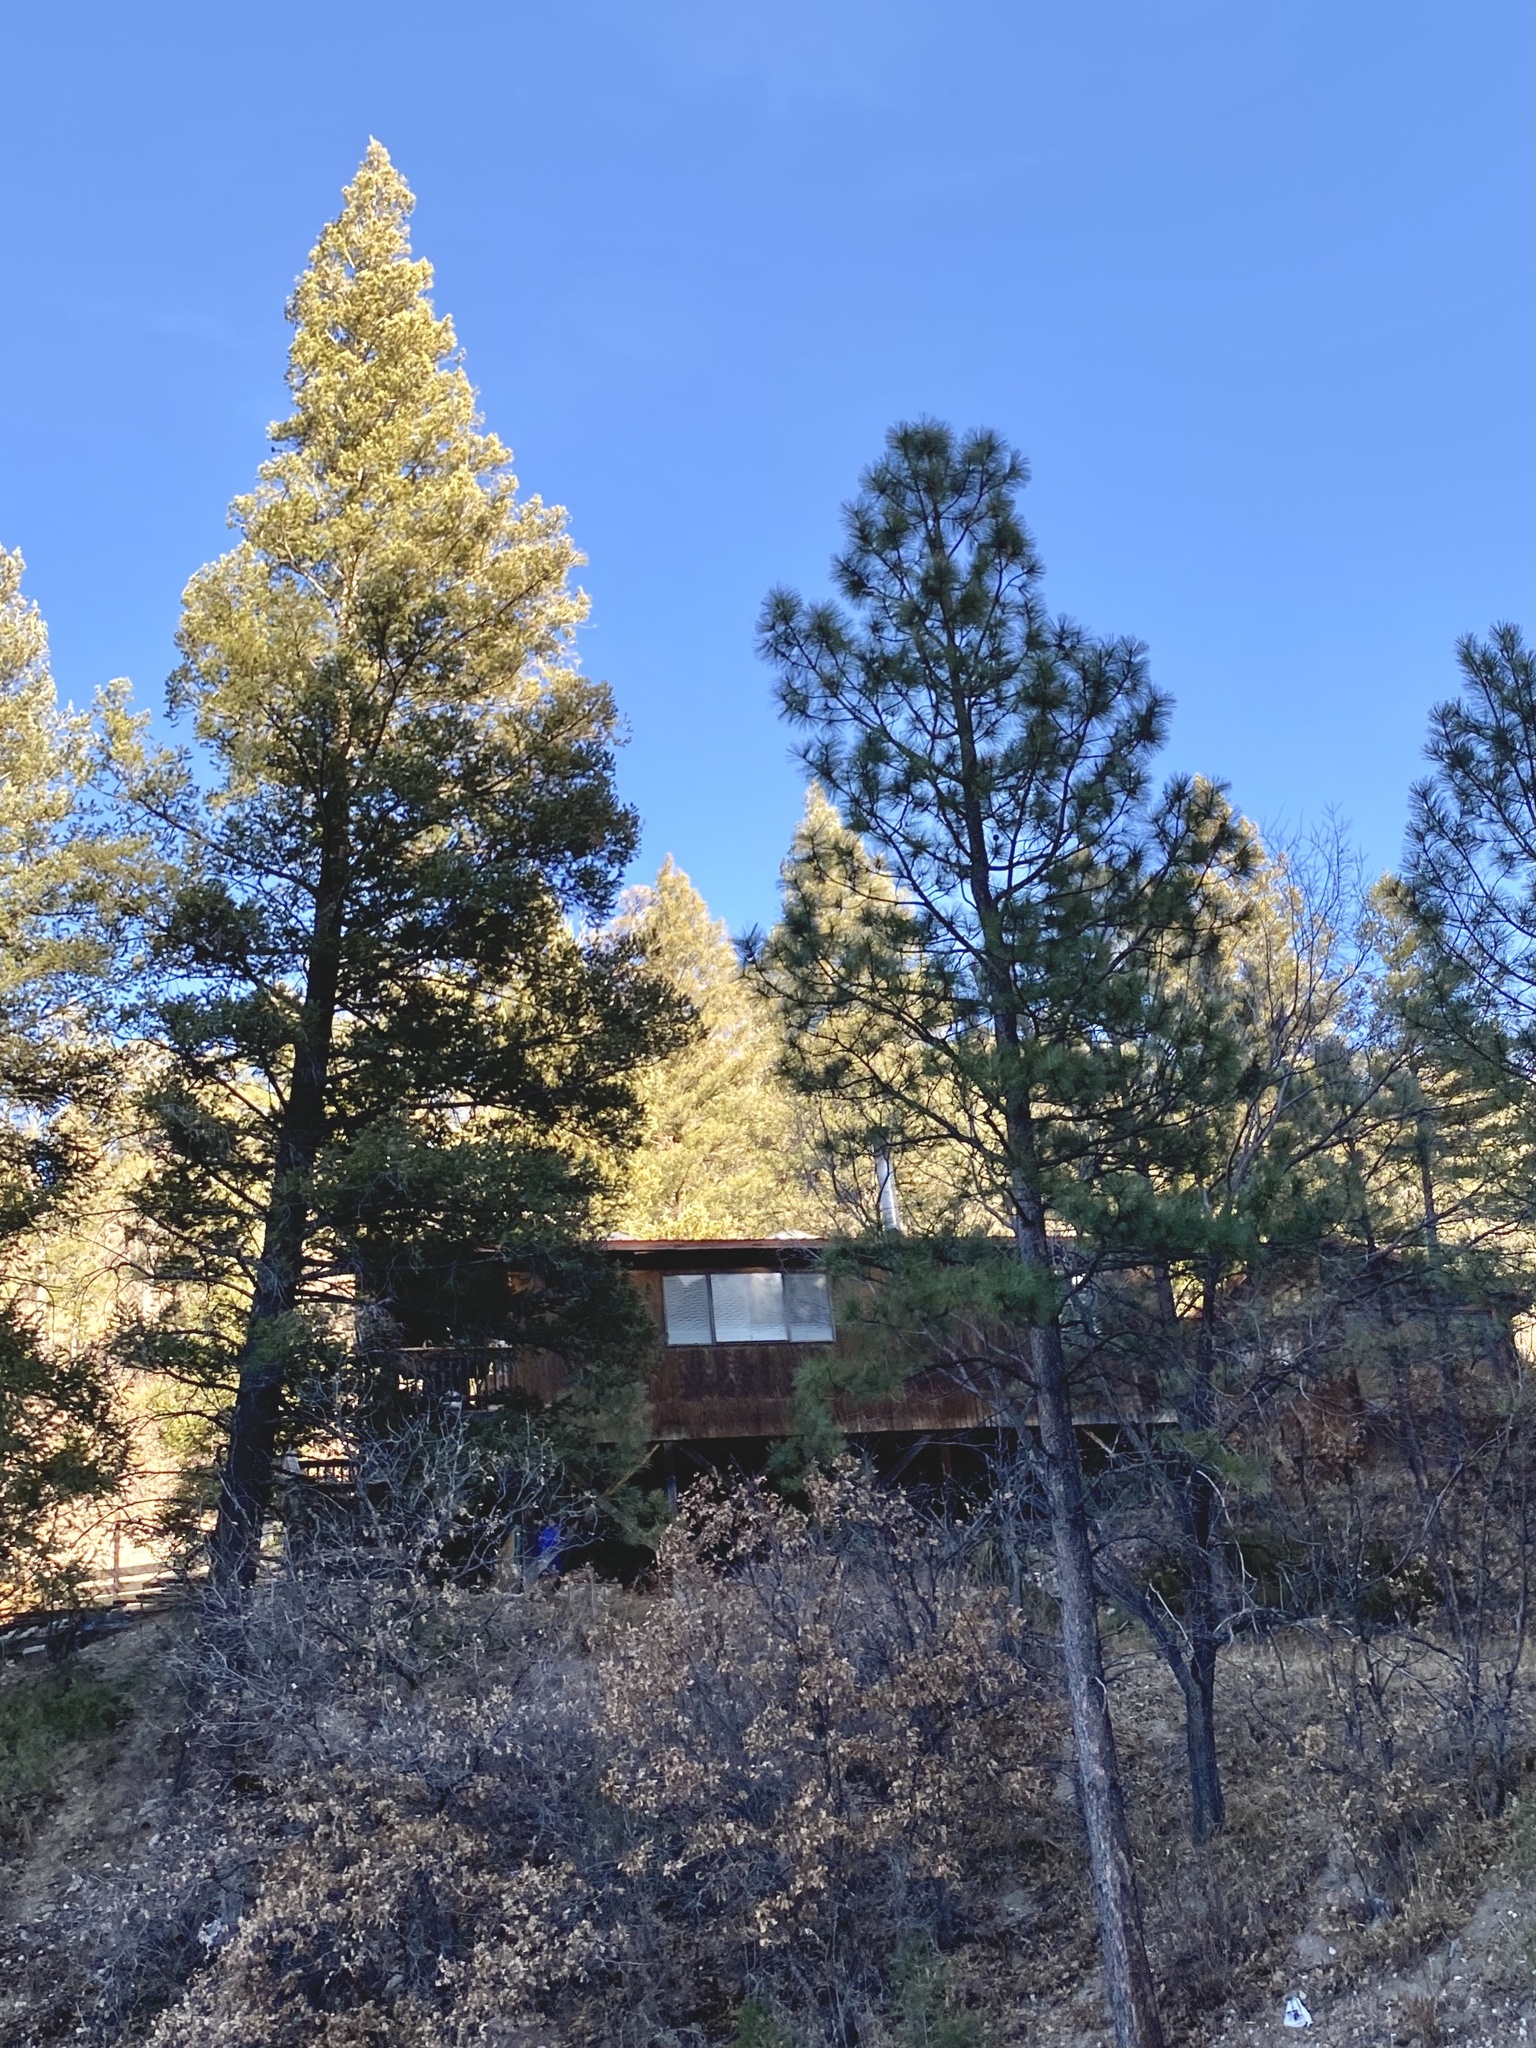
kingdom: Plantae
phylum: Tracheophyta
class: Pinopsida
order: Pinales
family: Pinaceae
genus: Pinus
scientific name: Pinus ponderosa
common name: Western yellow-pine
